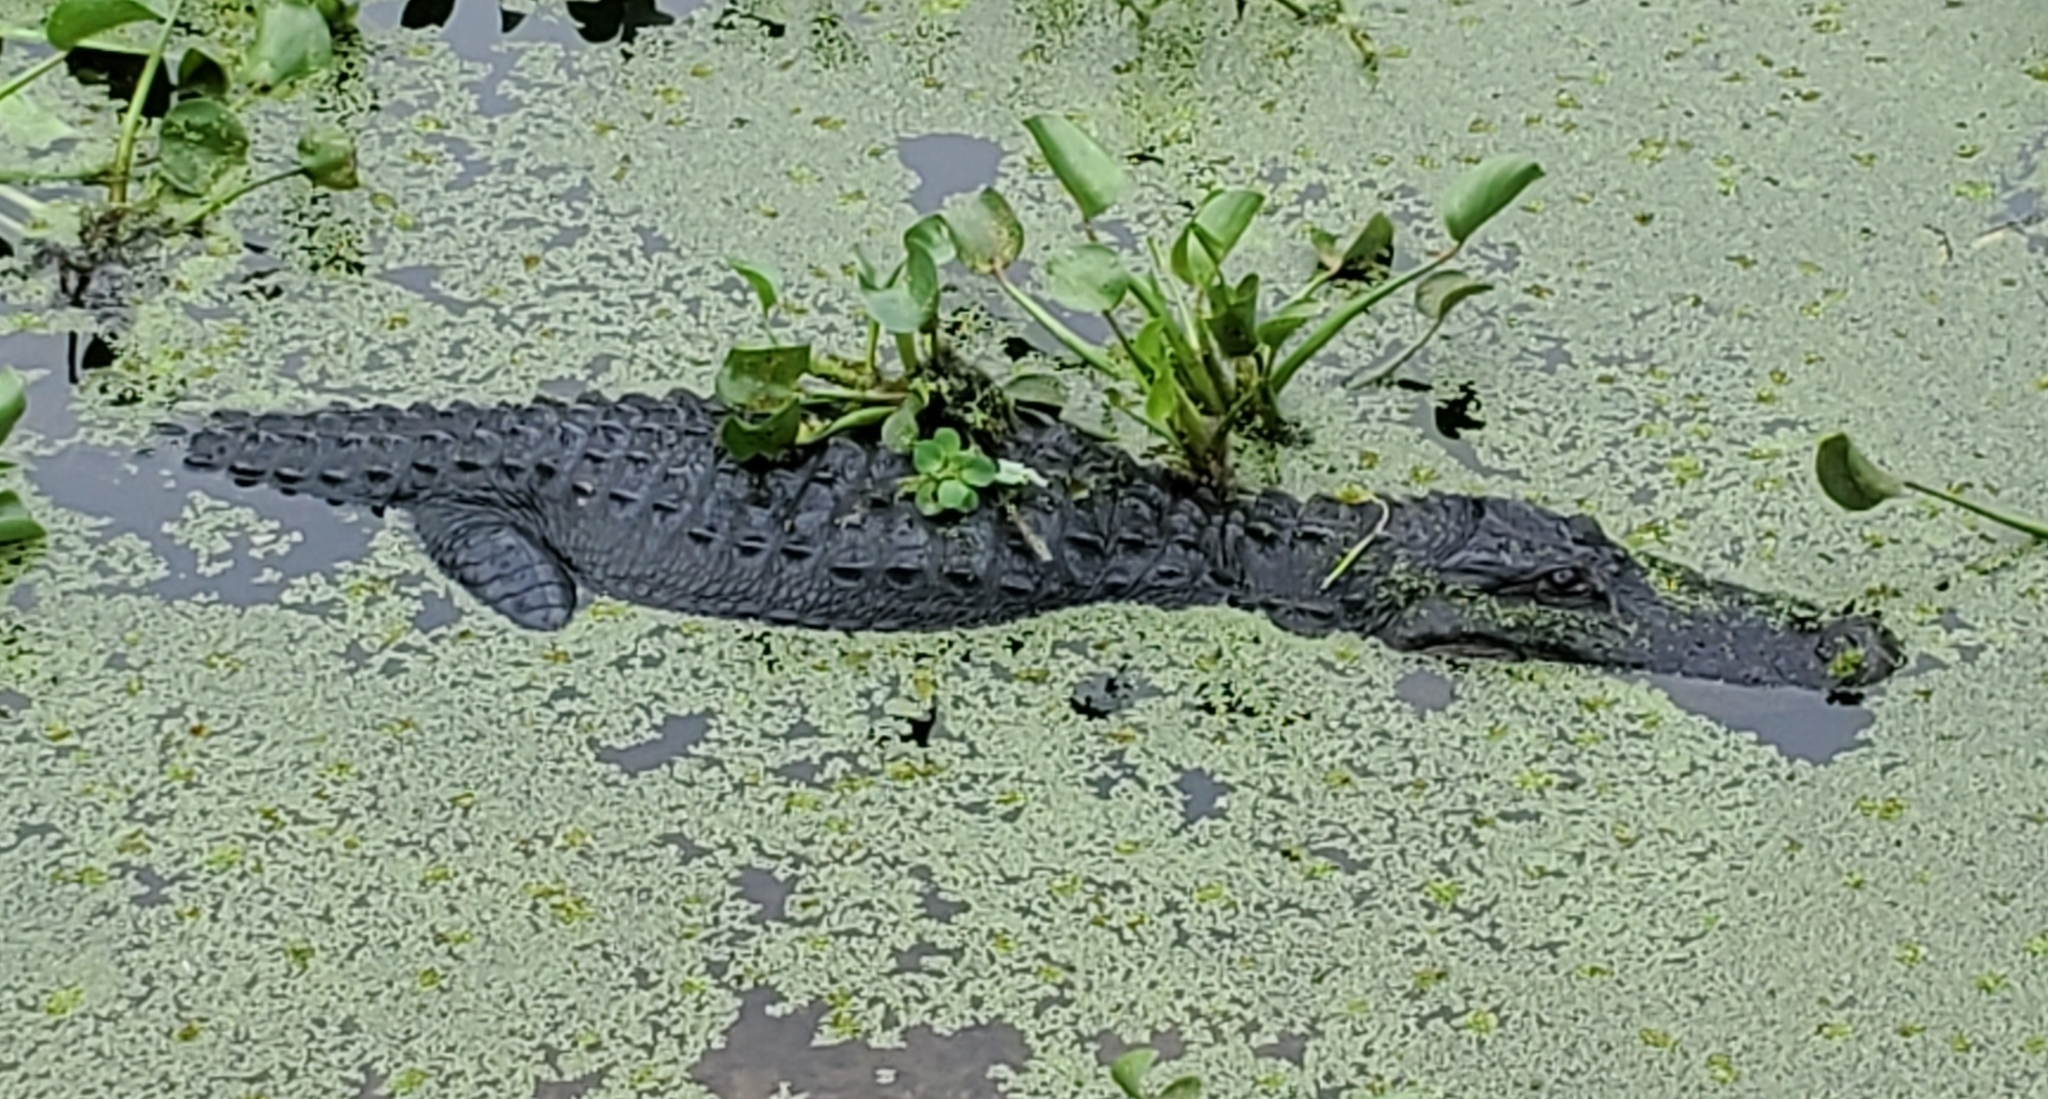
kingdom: Animalia
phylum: Chordata
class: Crocodylia
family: Alligatoridae
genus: Alligator
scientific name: Alligator mississippiensis
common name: American alligator
